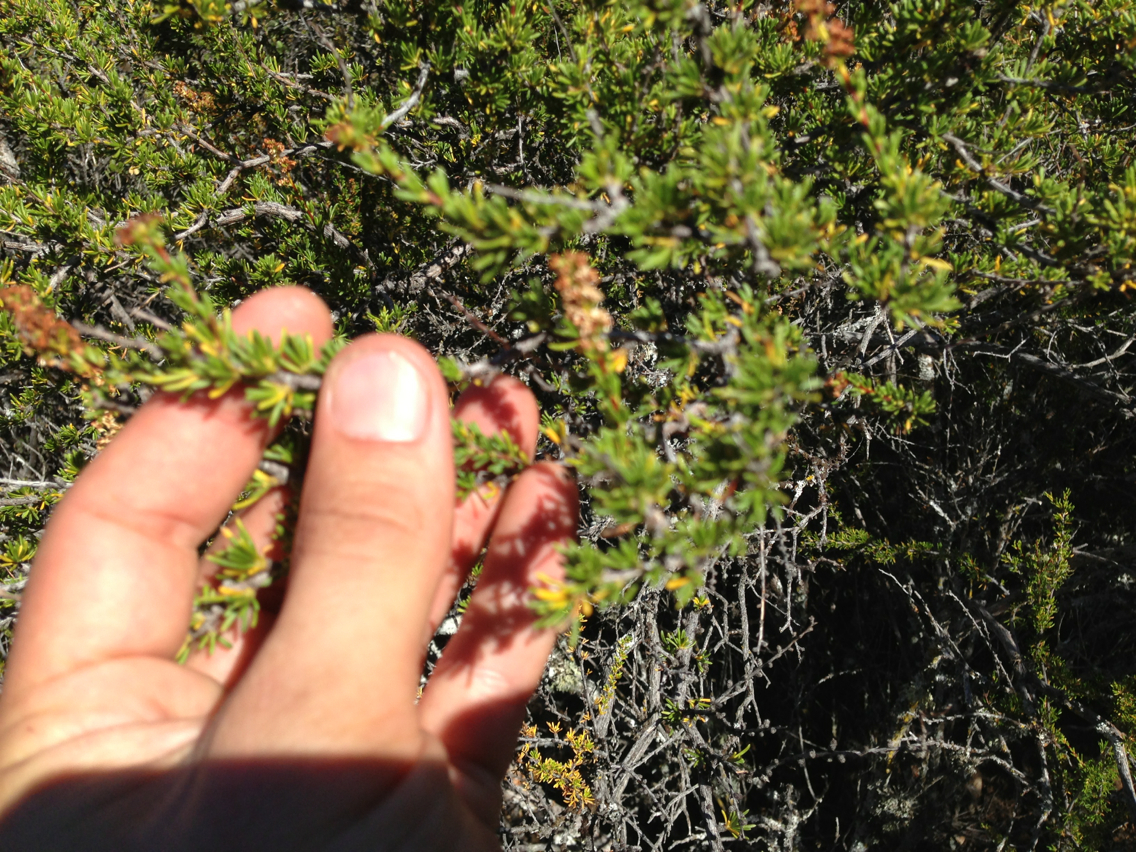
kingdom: Plantae
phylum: Tracheophyta
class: Magnoliopsida
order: Rosales
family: Rosaceae
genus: Adenostoma
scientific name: Adenostoma fasciculatum
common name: Chamise
